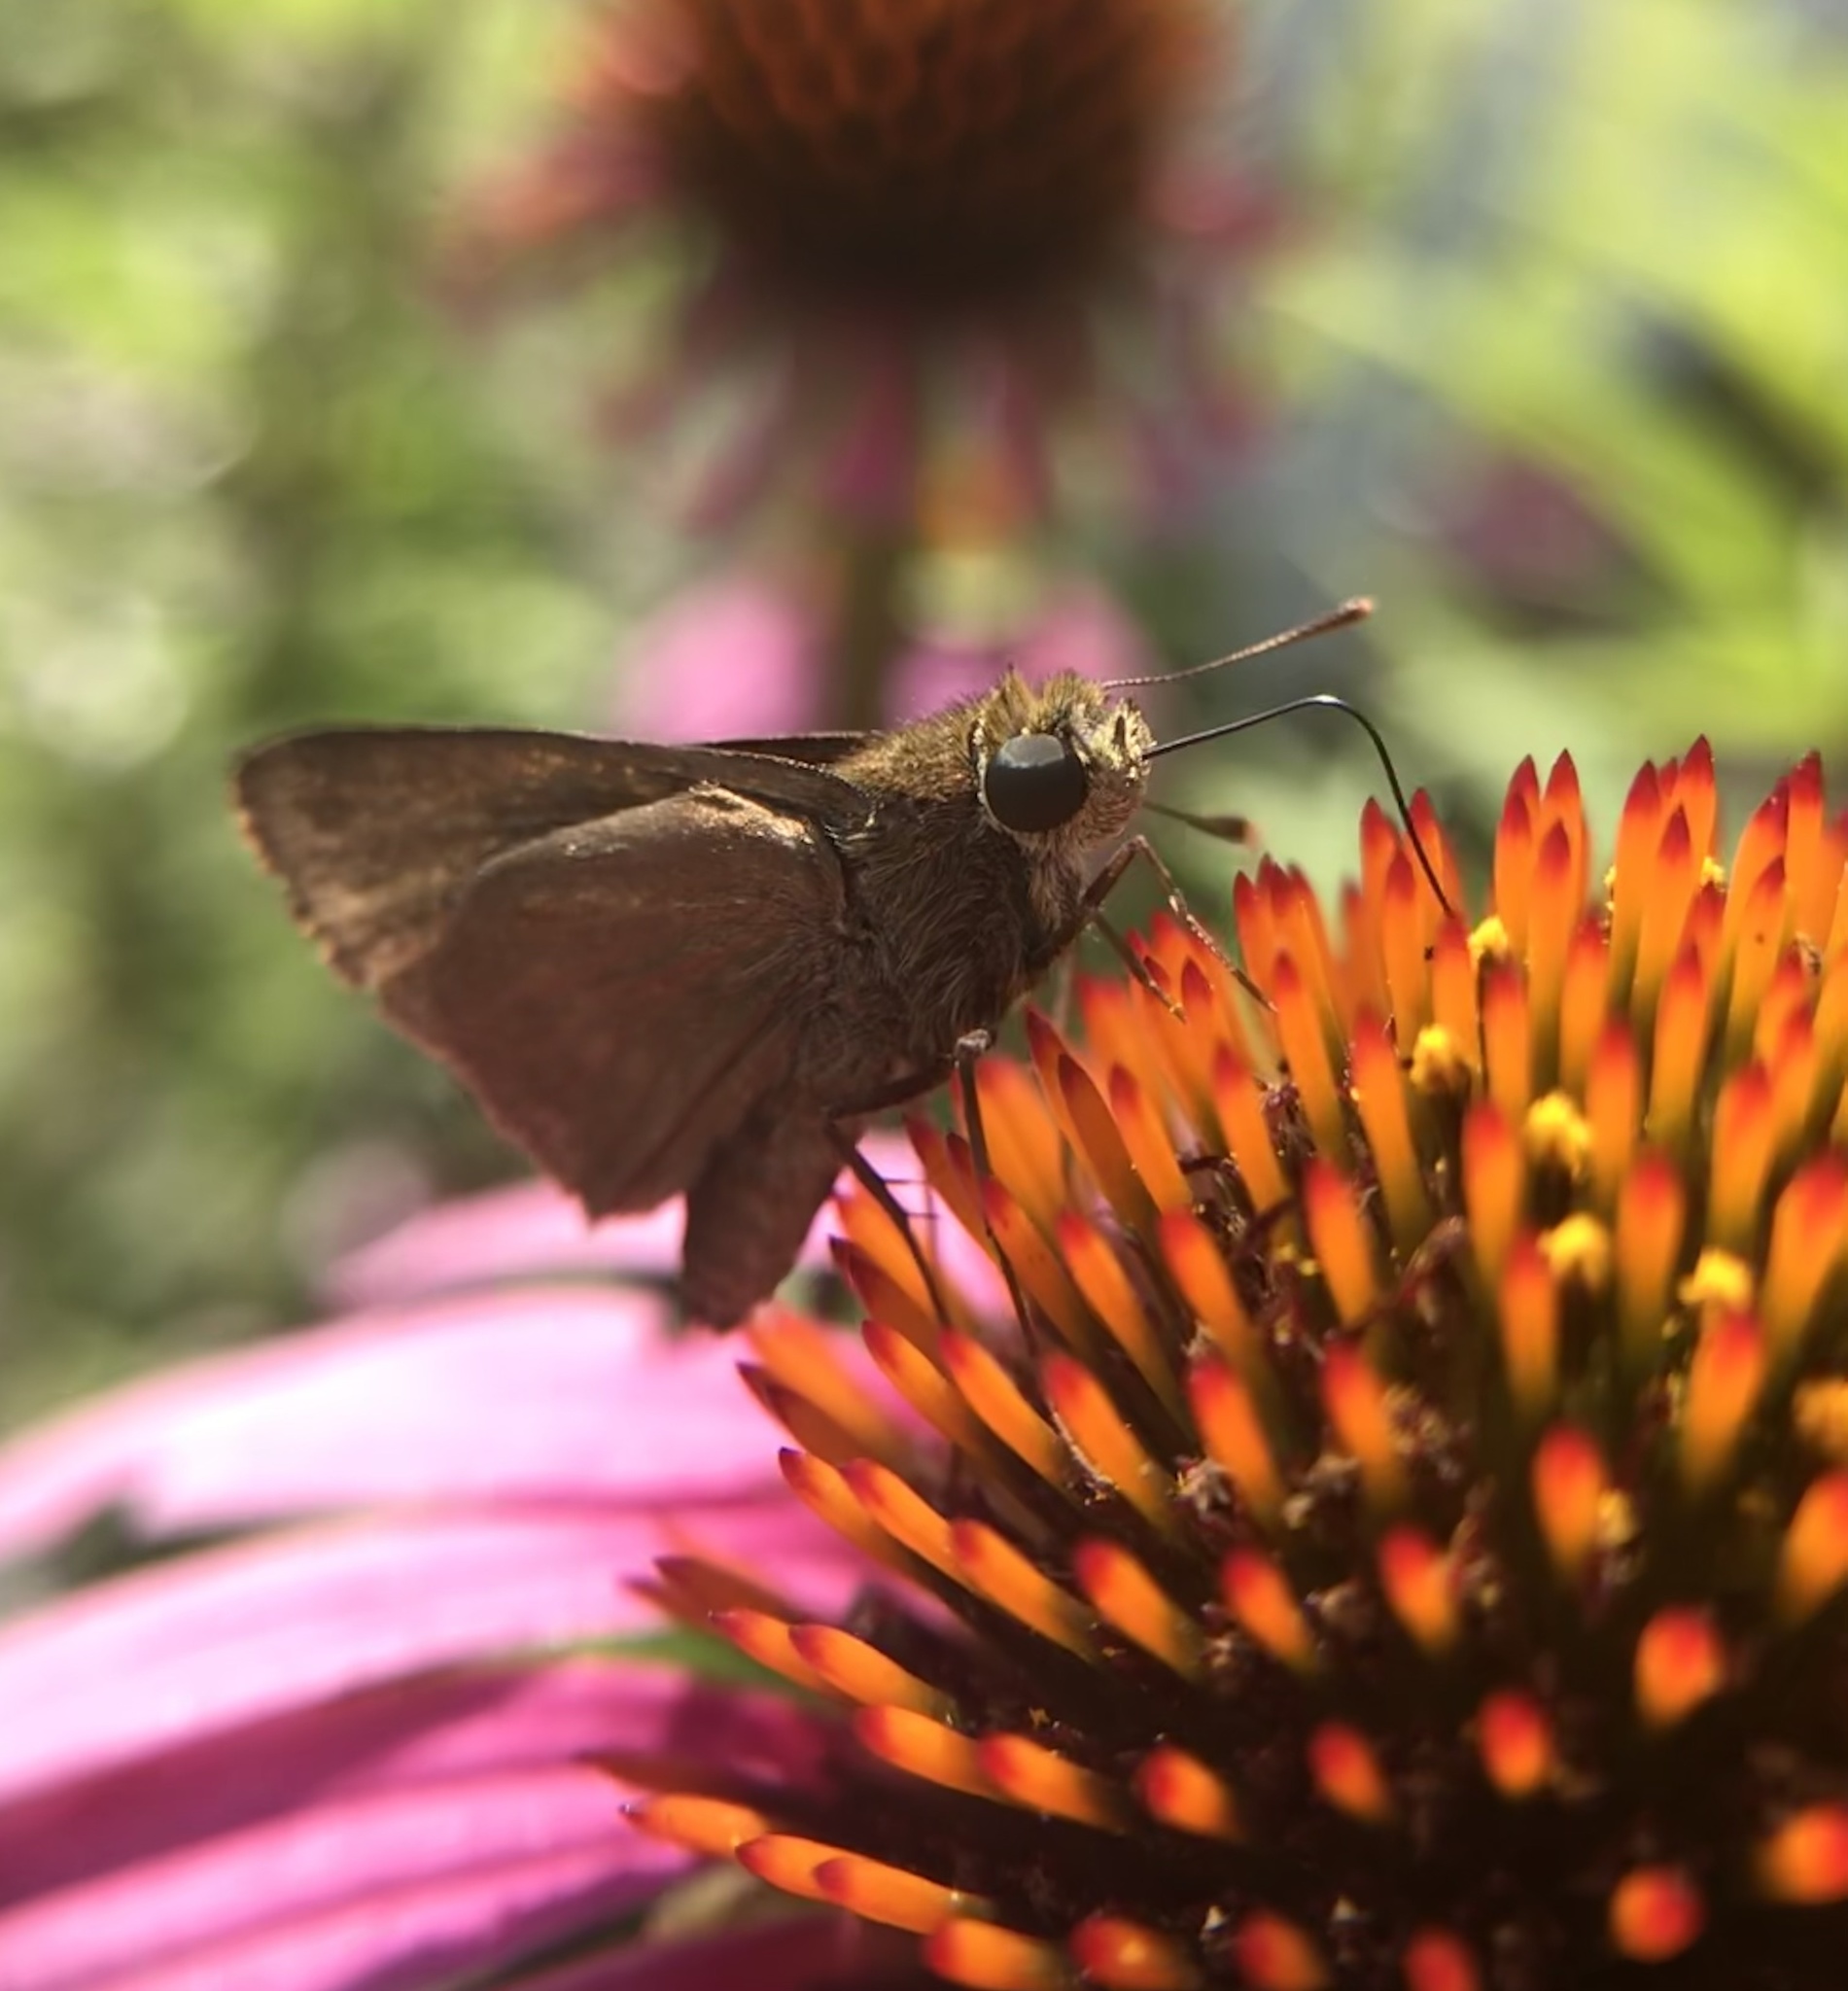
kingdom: Animalia
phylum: Arthropoda
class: Insecta
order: Lepidoptera
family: Hesperiidae
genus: Euphyes
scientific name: Euphyes vestris
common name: Dun skipper
